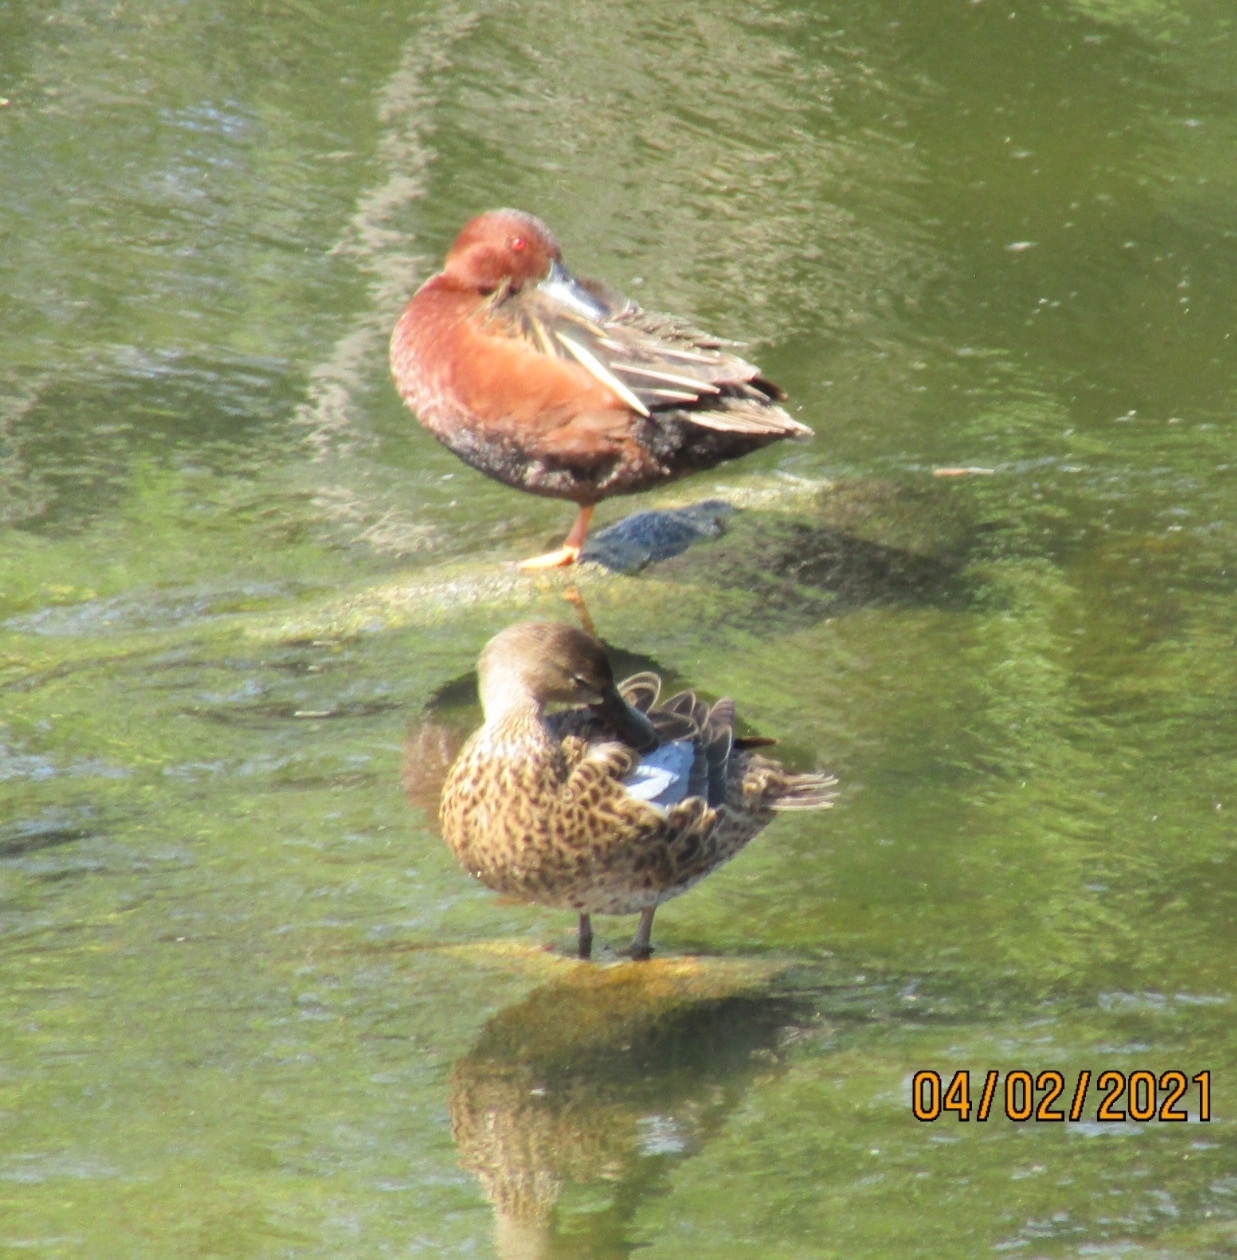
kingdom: Animalia
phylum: Chordata
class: Aves
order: Anseriformes
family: Anatidae
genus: Spatula
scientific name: Spatula cyanoptera
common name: Cinnamon teal
